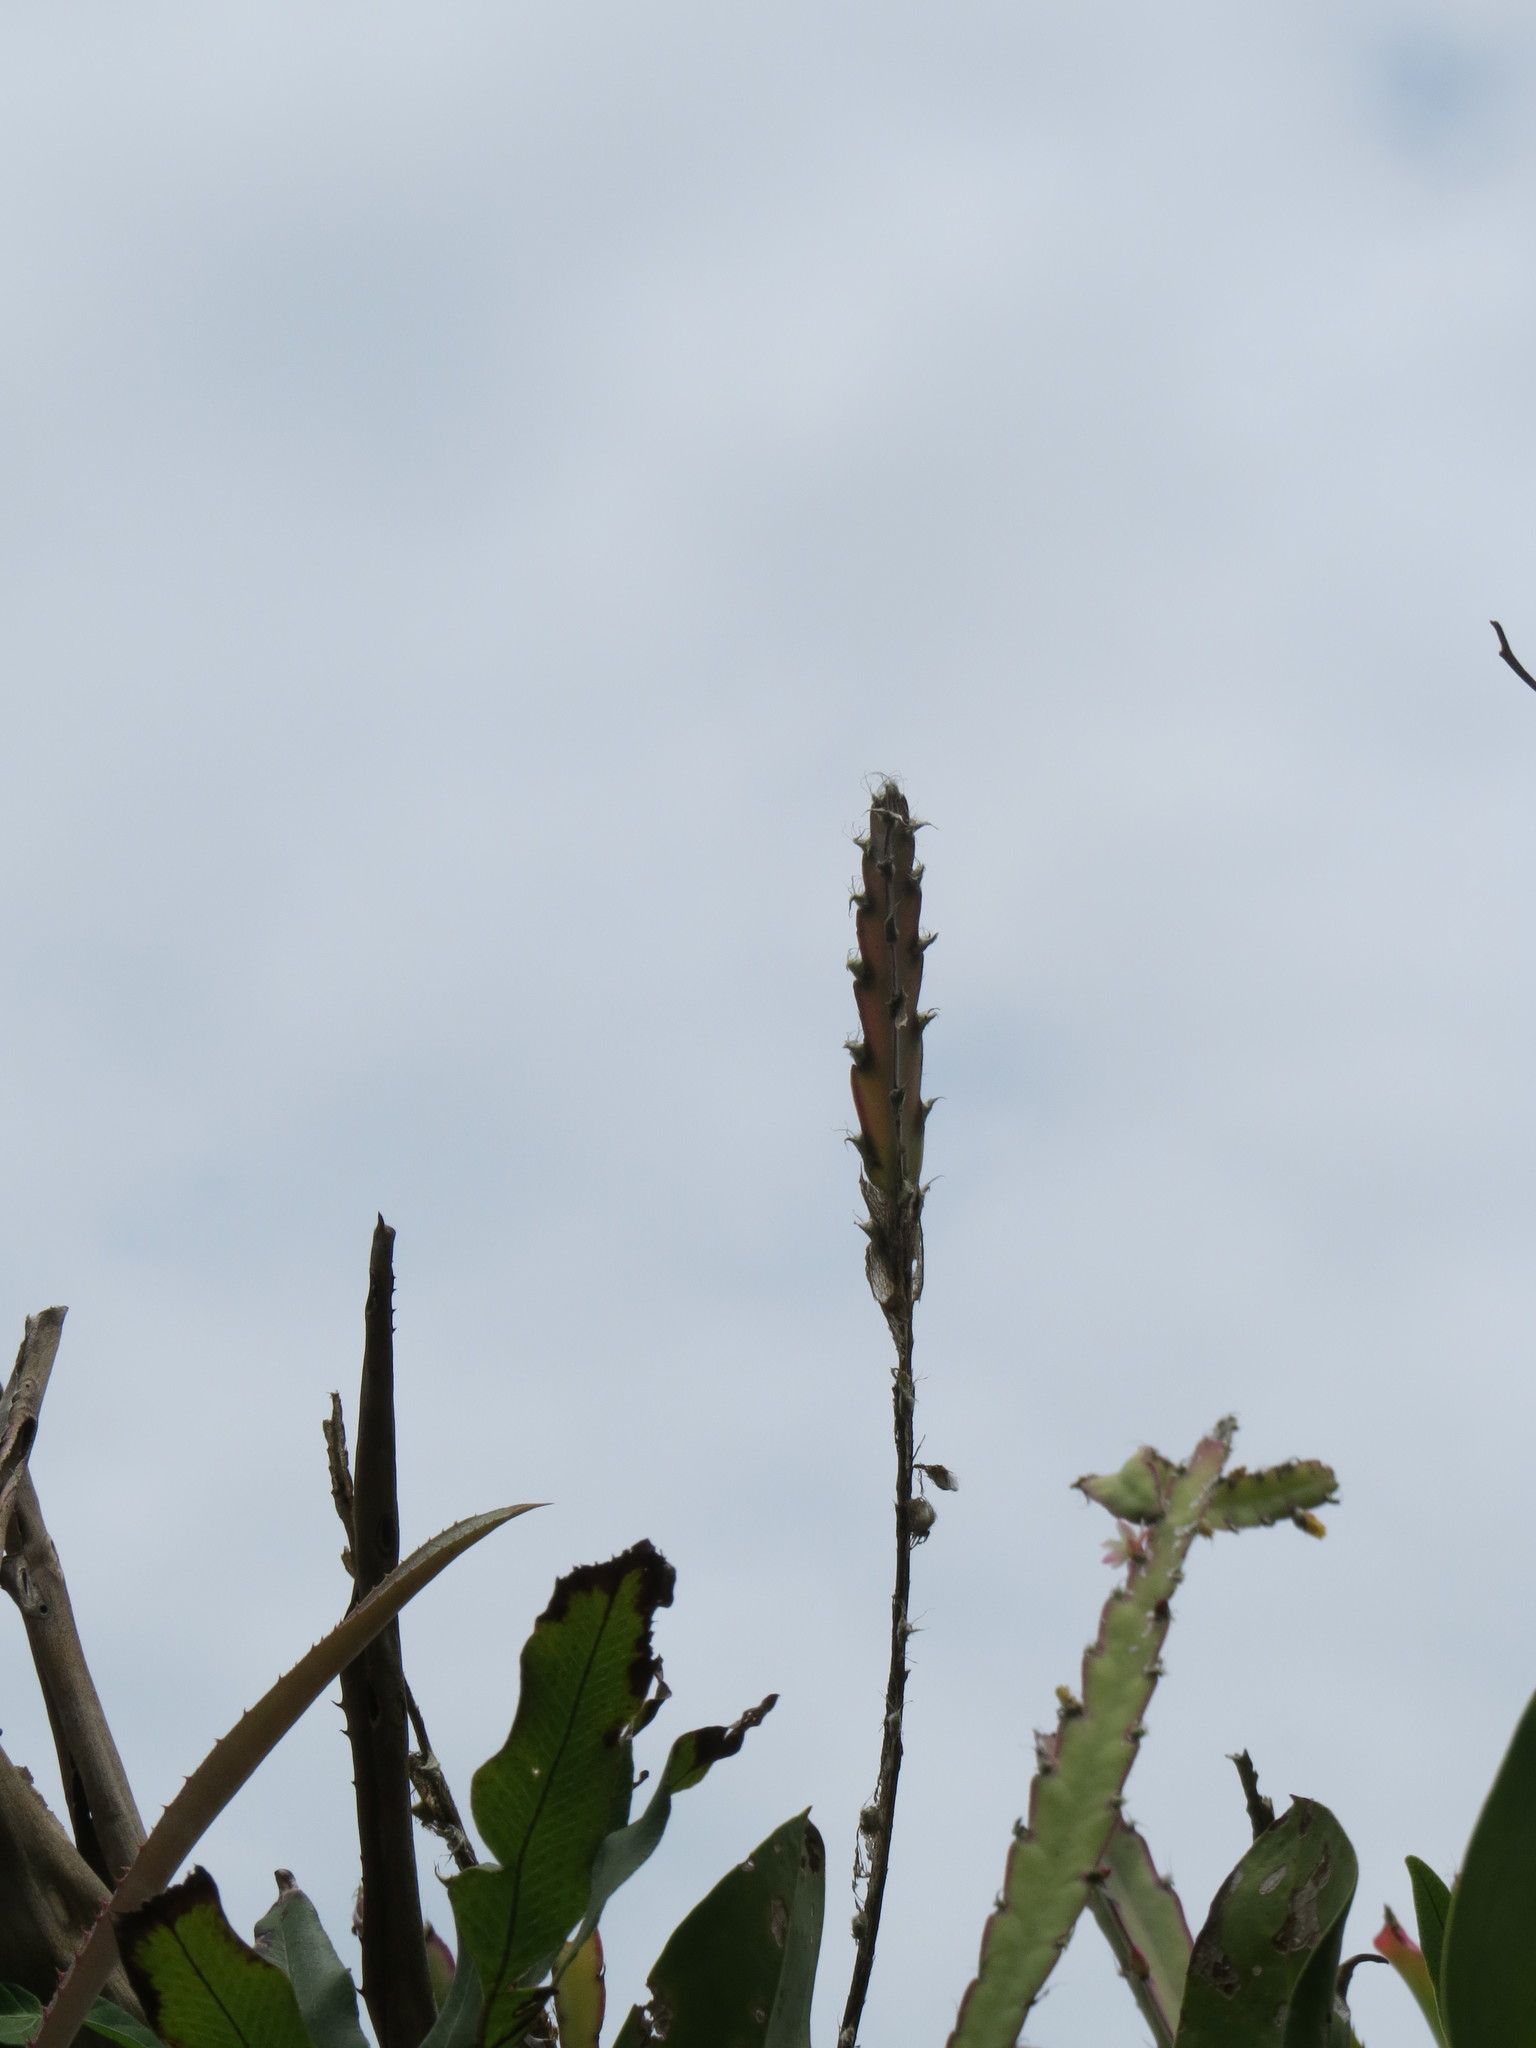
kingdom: Plantae
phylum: Tracheophyta
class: Magnoliopsida
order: Caryophyllales
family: Cactaceae
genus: Lepismium
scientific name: Lepismium cruciforme
